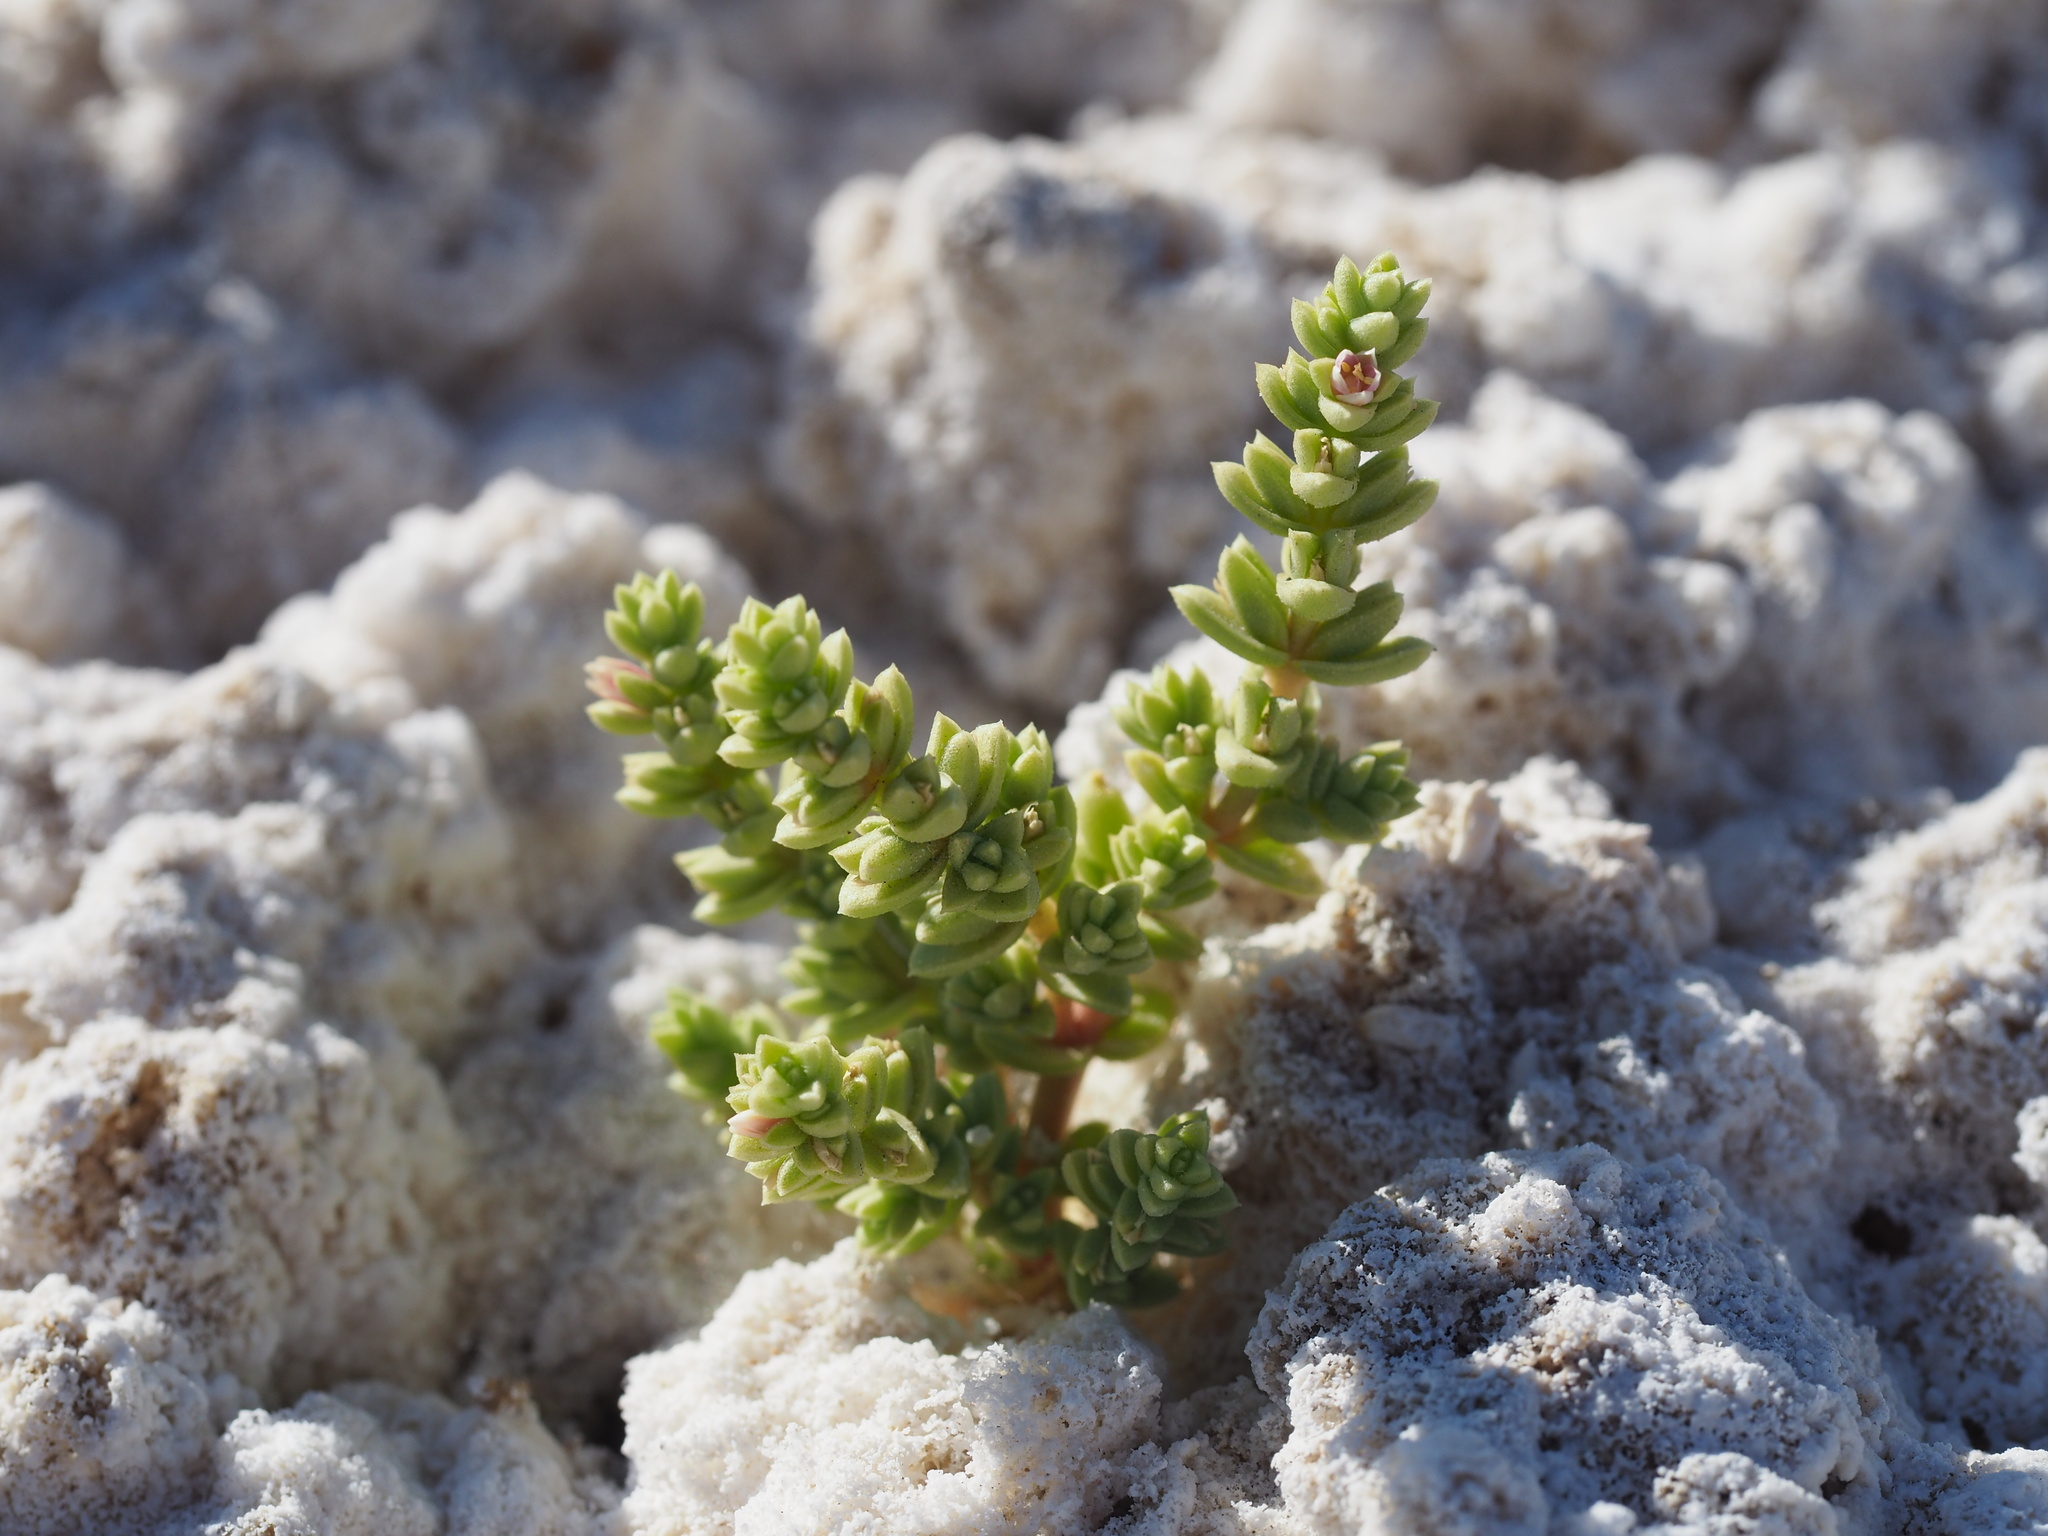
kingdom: Plantae
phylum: Tracheophyta
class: Magnoliopsida
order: Caryophyllales
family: Amaranthaceae
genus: Nitrophila
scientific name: Nitrophila mohavensis
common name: Amargosa niterwort
